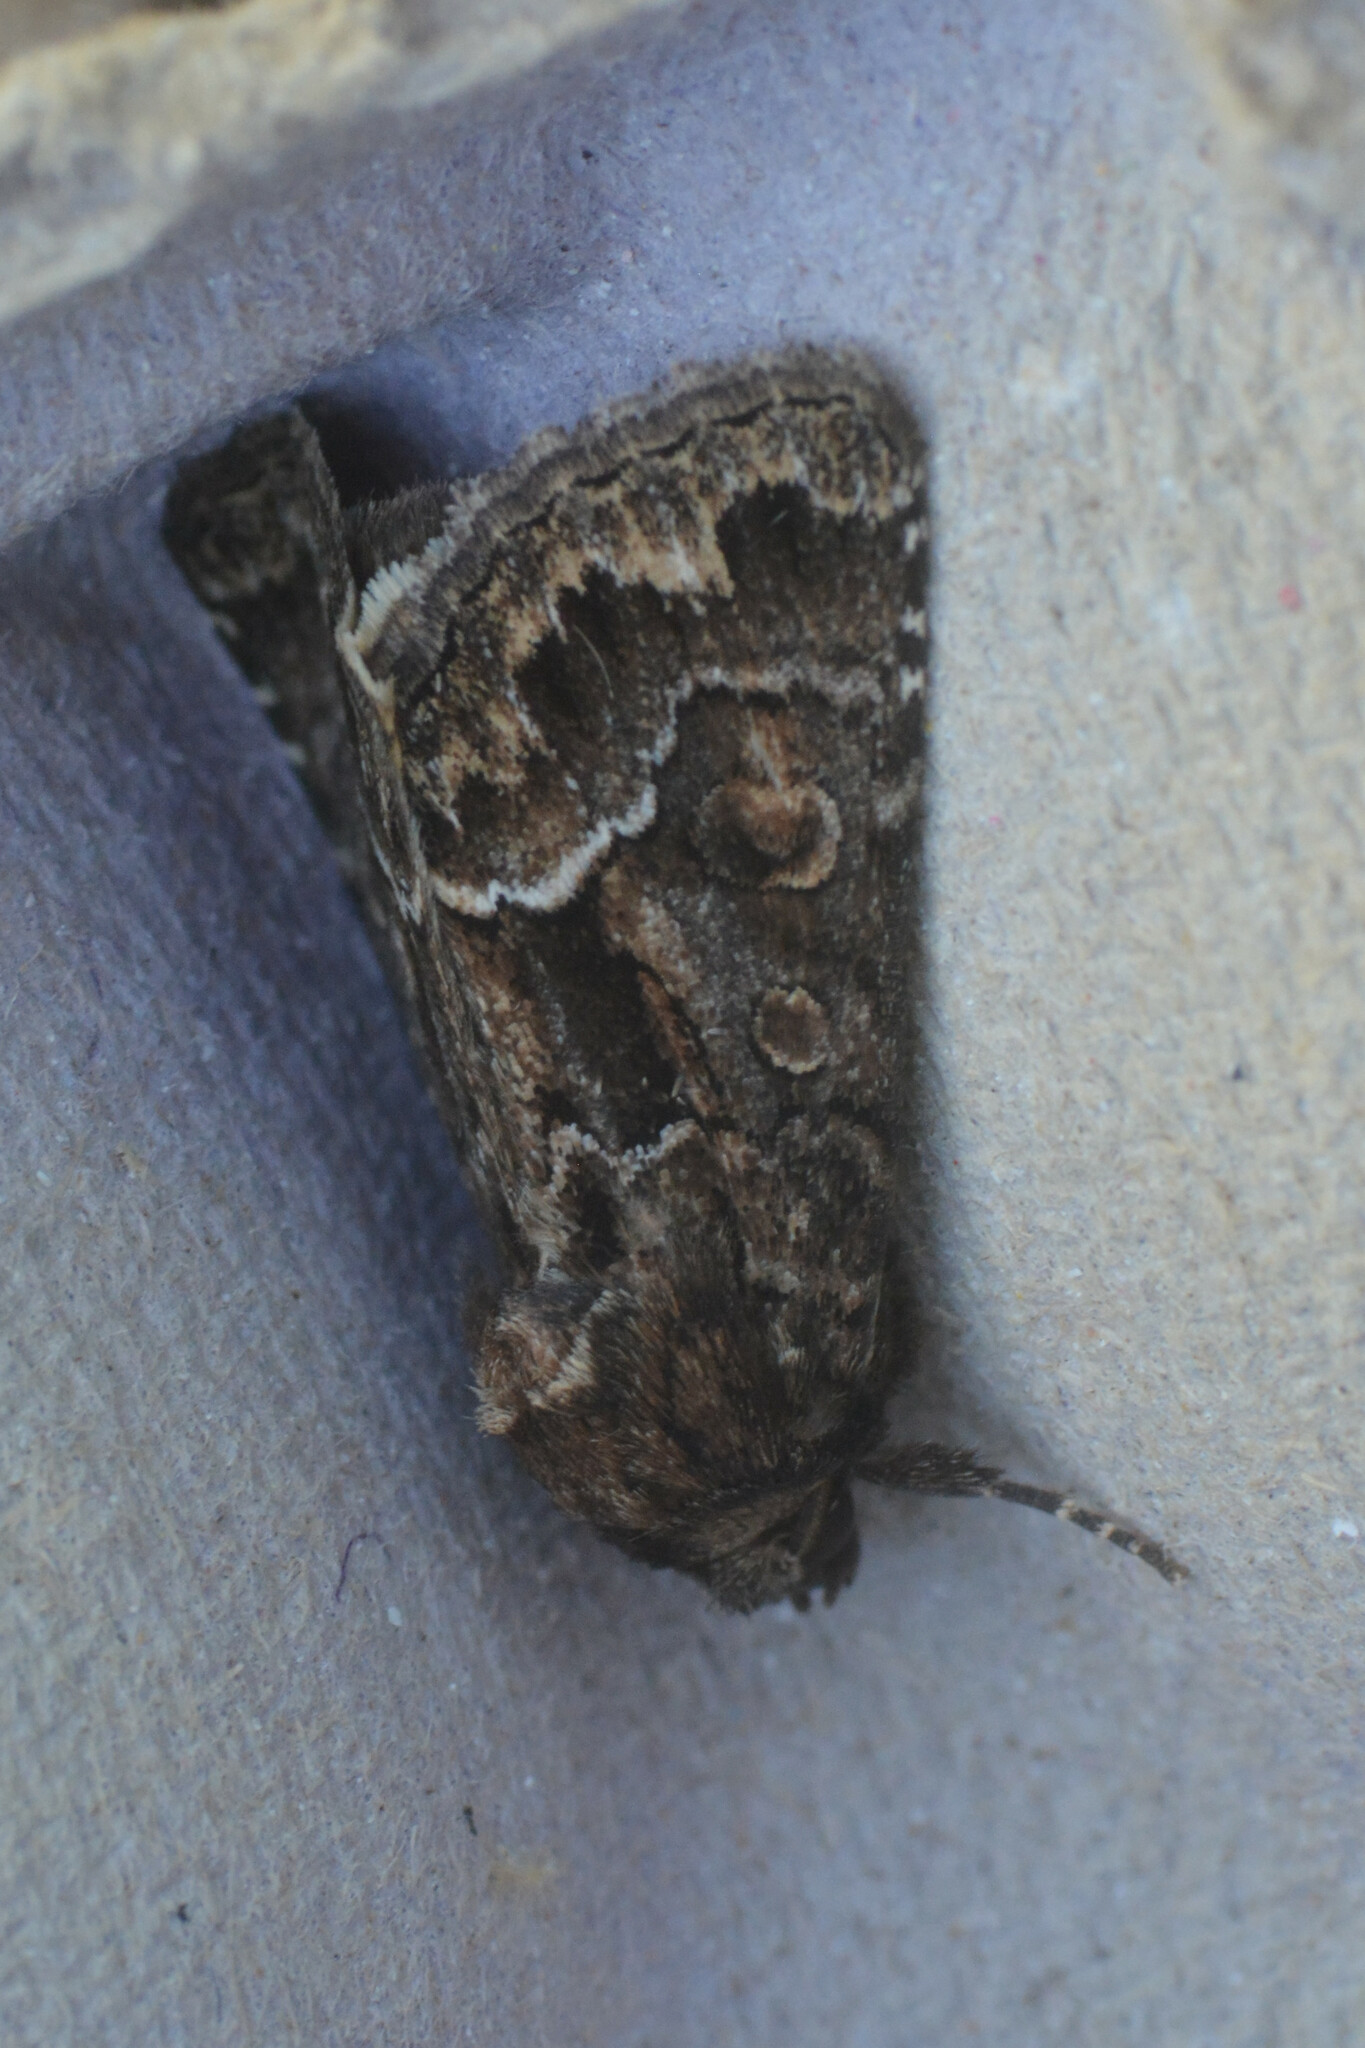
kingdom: Animalia
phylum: Arthropoda
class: Insecta
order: Lepidoptera
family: Noctuidae
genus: Thalpophila
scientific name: Thalpophila matura
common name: Straw underwing
